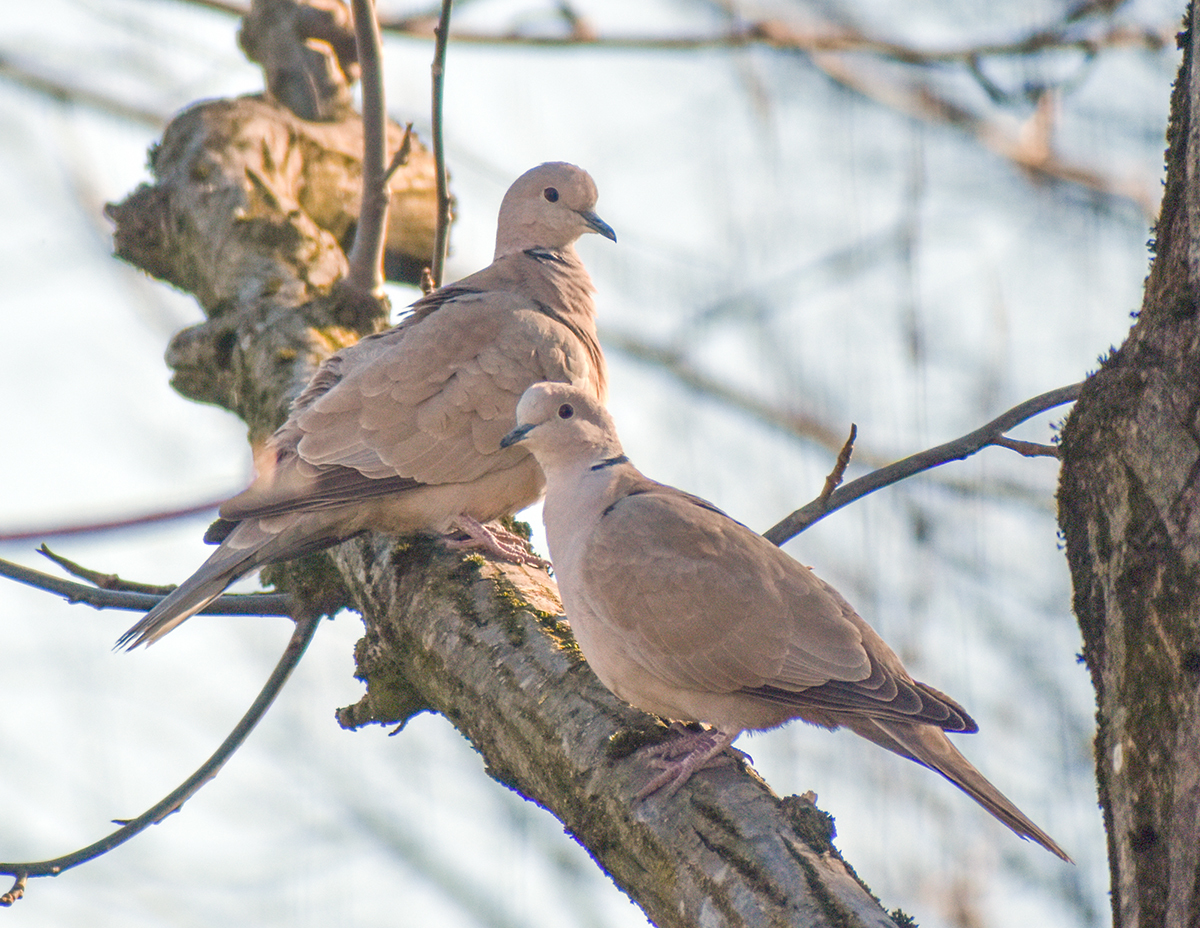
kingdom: Animalia
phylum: Chordata
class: Aves
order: Columbiformes
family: Columbidae
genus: Streptopelia
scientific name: Streptopelia decaocto
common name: Eurasian collared dove
